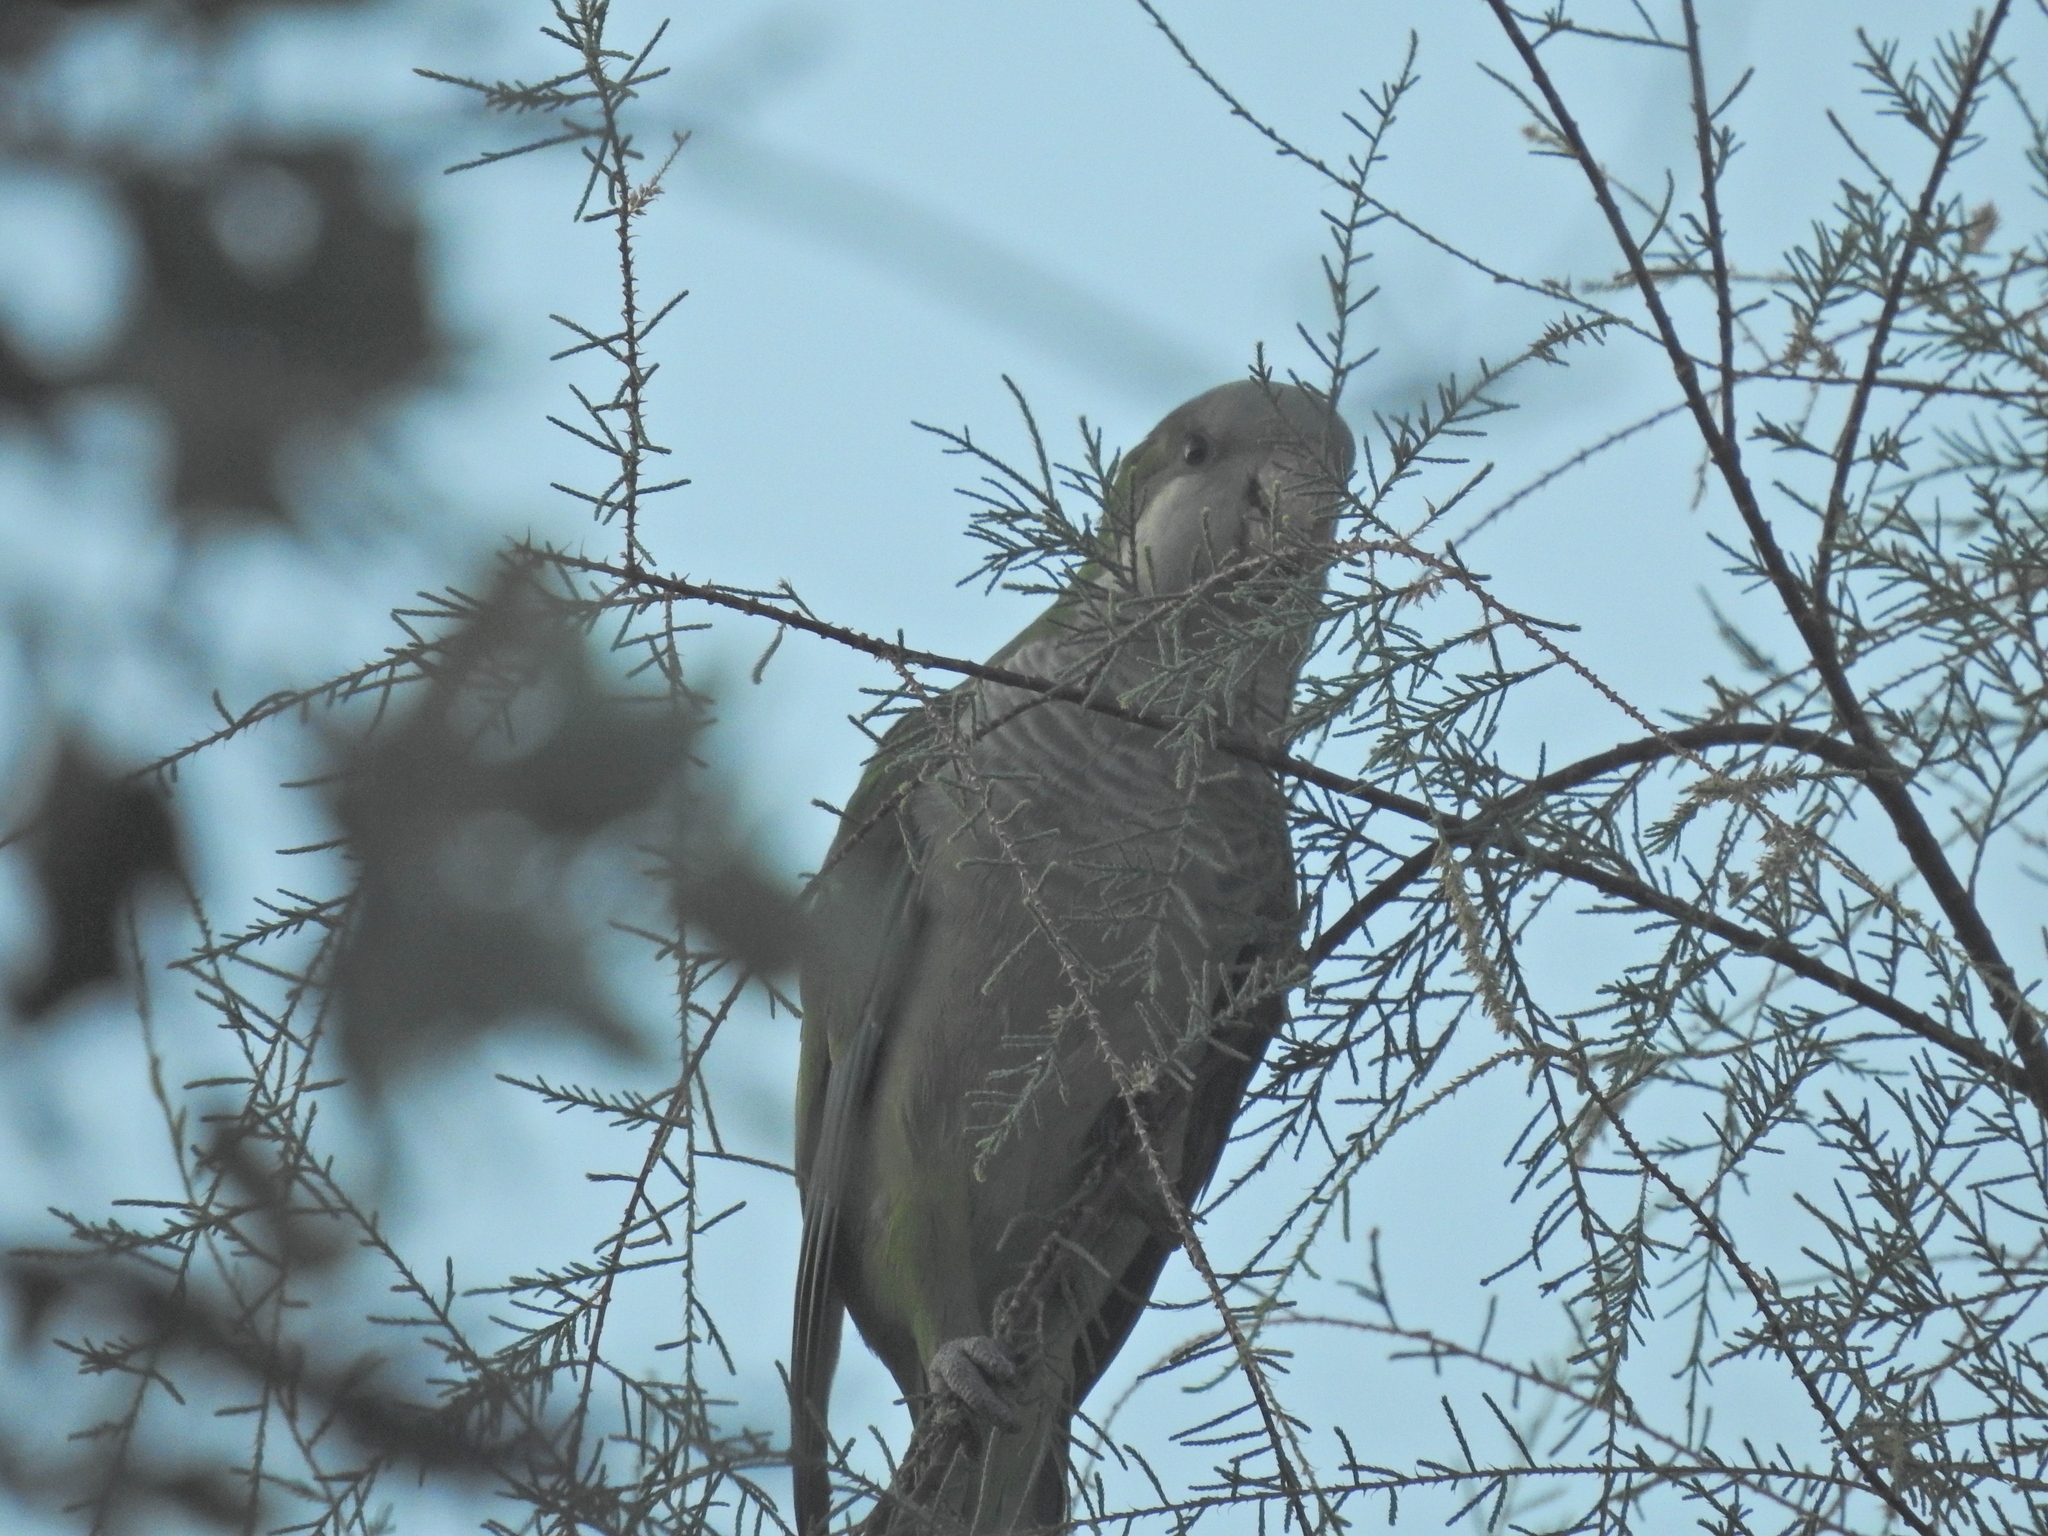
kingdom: Animalia
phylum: Chordata
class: Aves
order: Psittaciformes
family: Psittacidae
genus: Myiopsitta
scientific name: Myiopsitta monachus
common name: Monk parakeet
